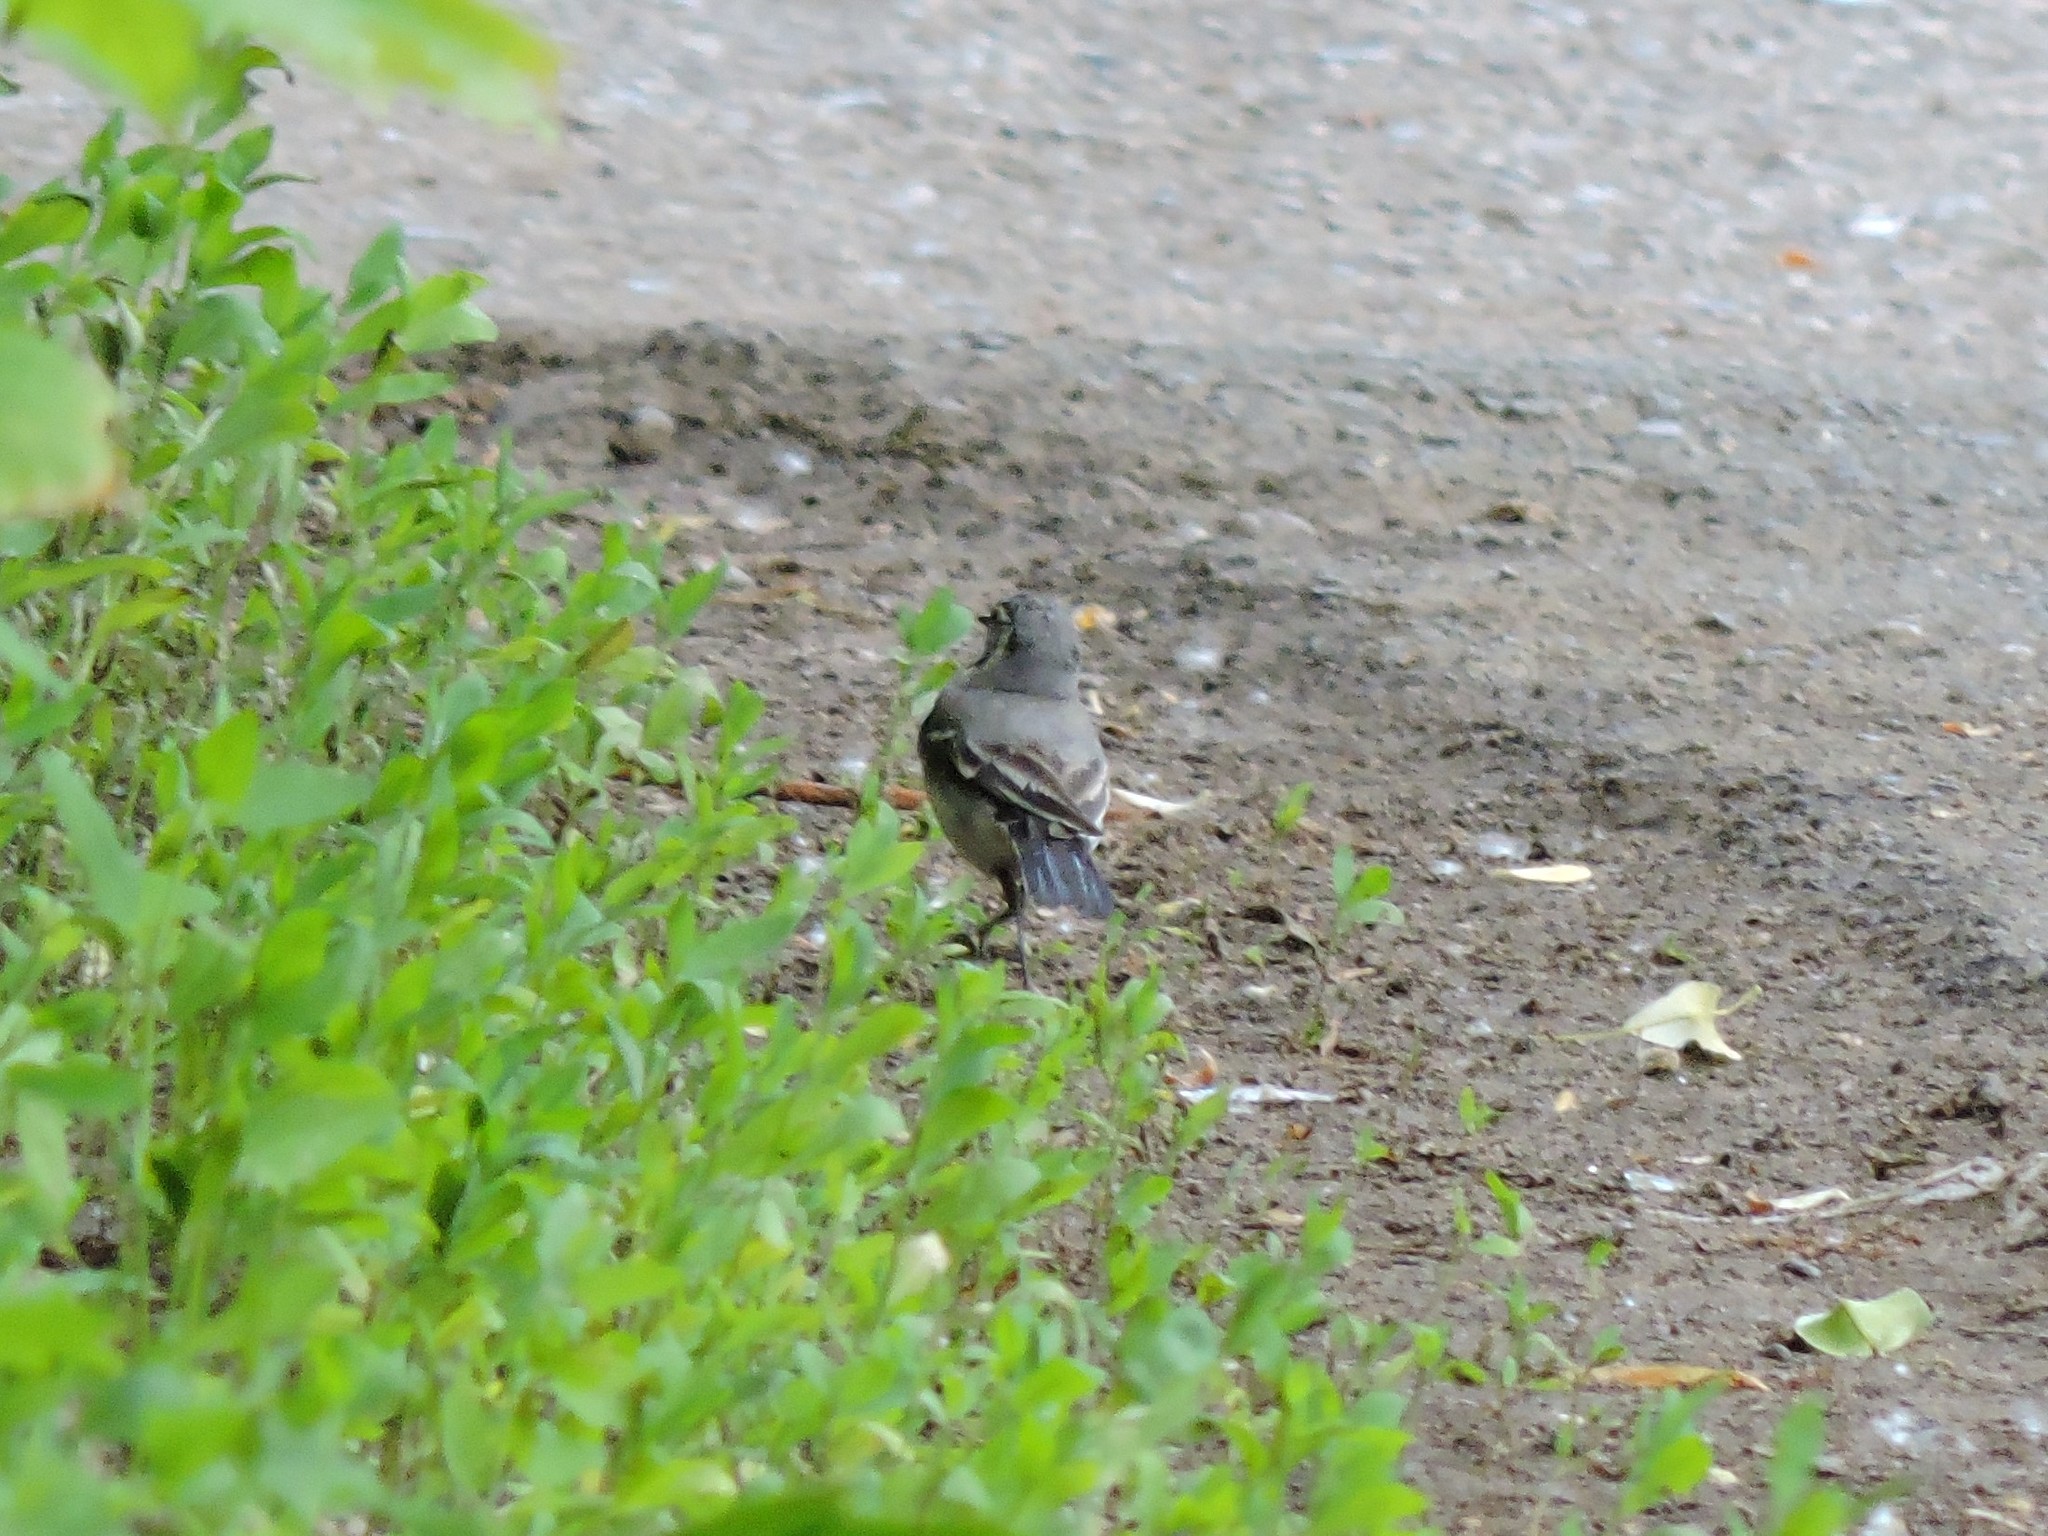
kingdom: Animalia
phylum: Chordata
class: Aves
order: Passeriformes
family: Motacillidae
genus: Motacilla
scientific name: Motacilla alba
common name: White wagtail
